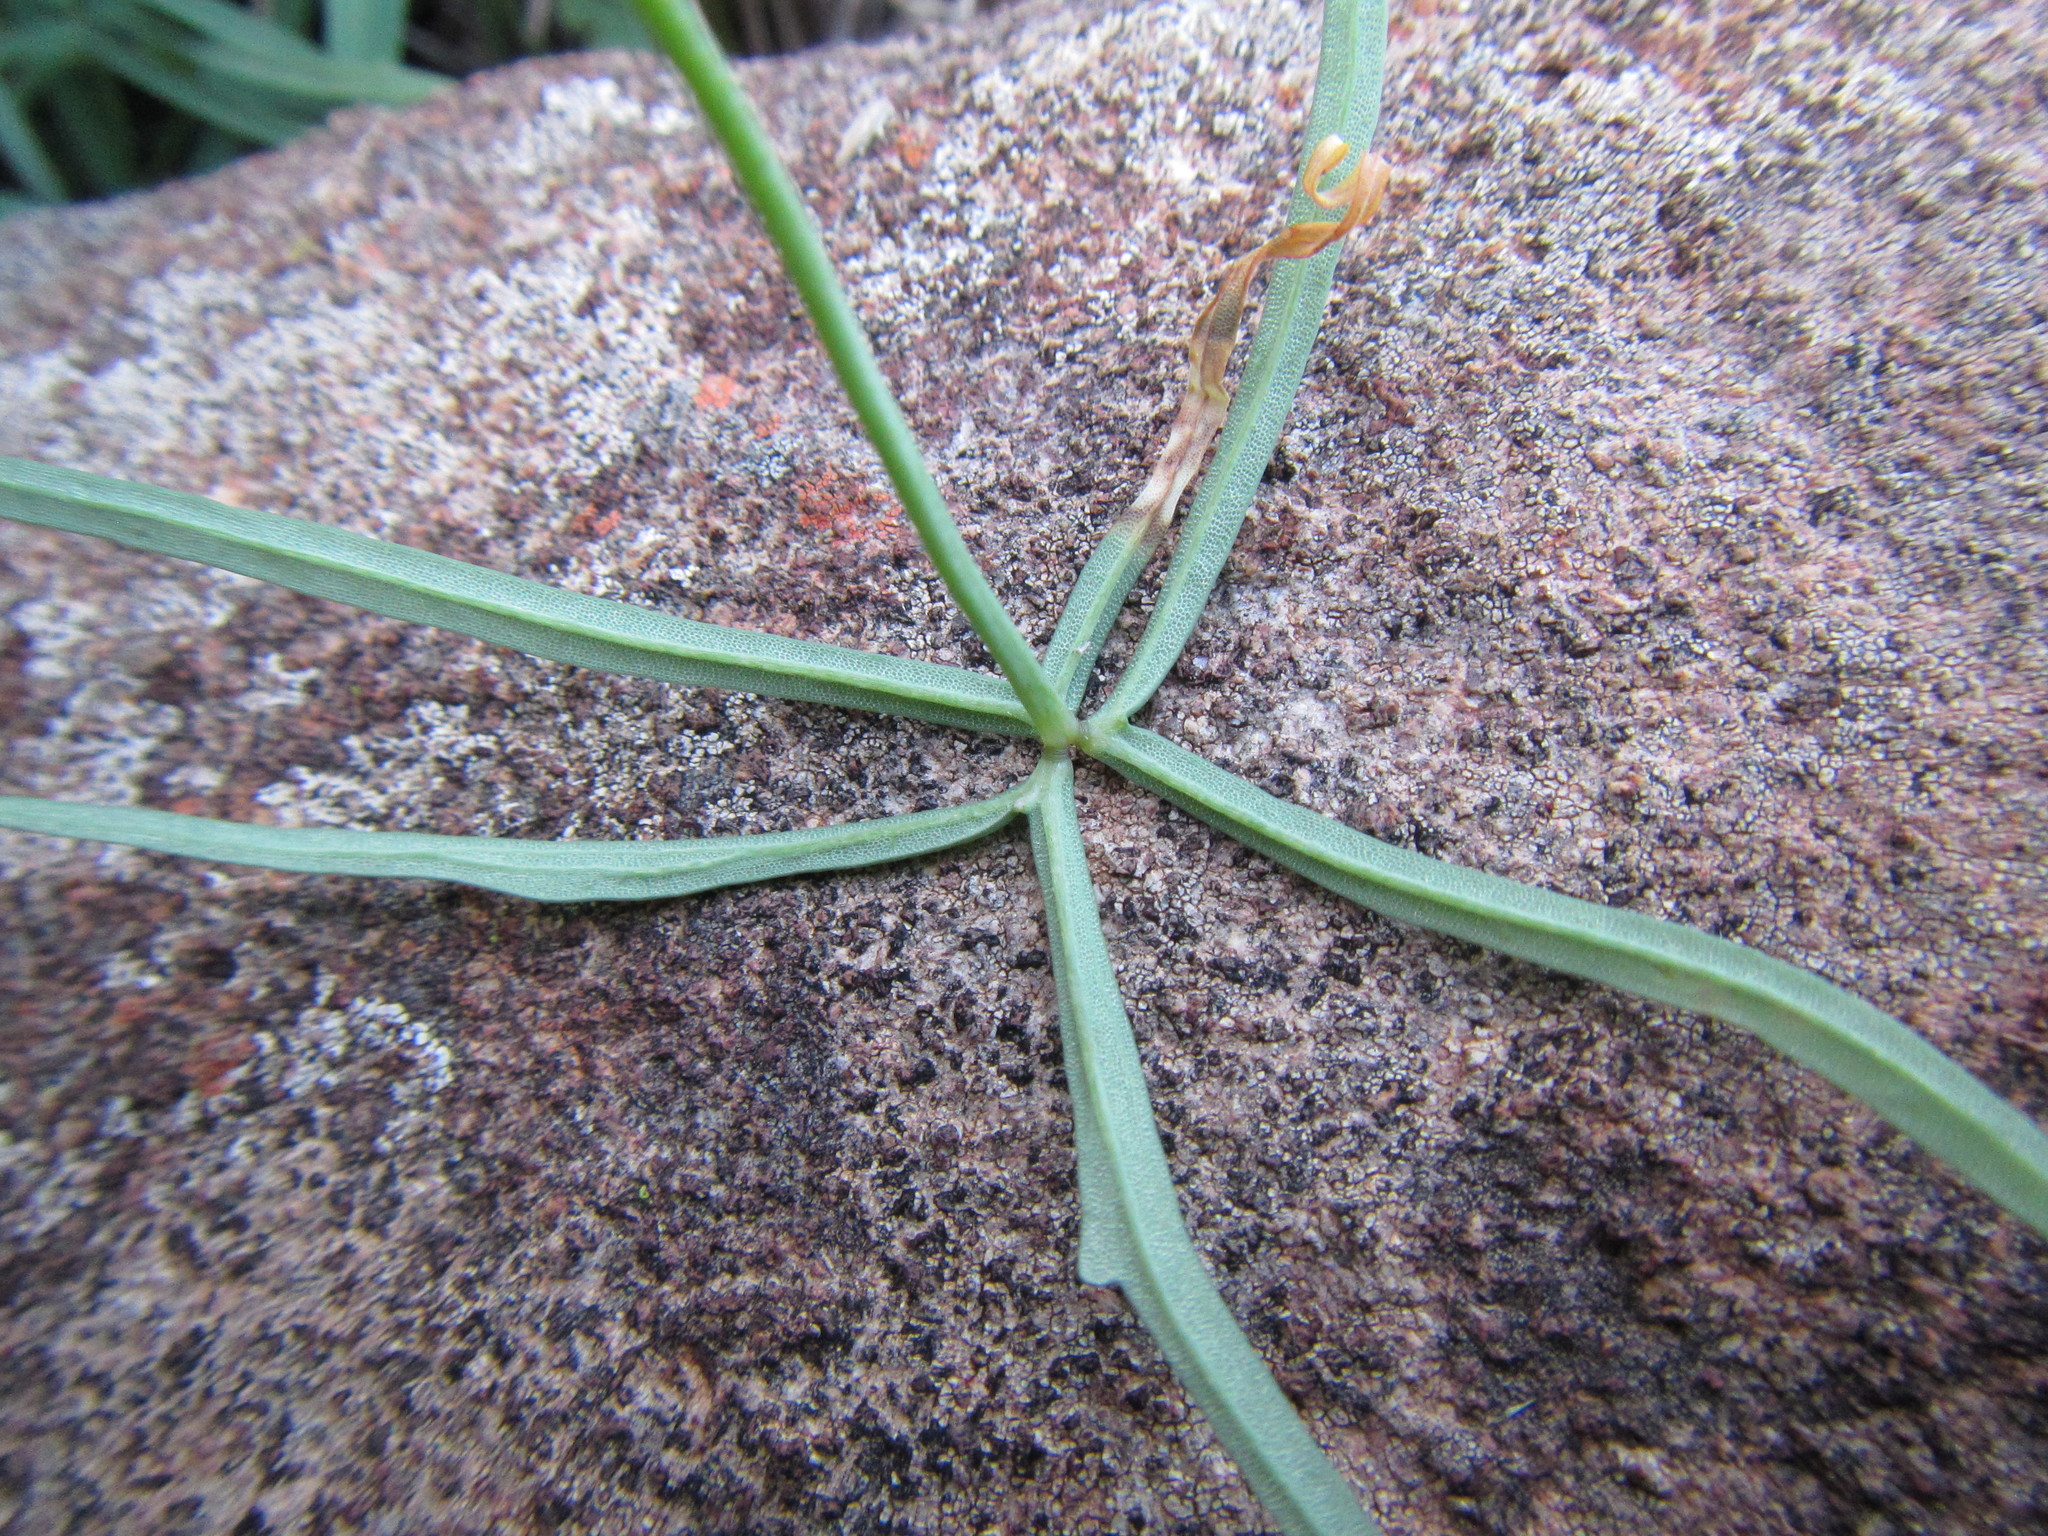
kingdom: Plantae
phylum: Tracheophyta
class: Magnoliopsida
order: Oxalidales
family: Oxalidaceae
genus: Oxalis
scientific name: Oxalis smithiana
